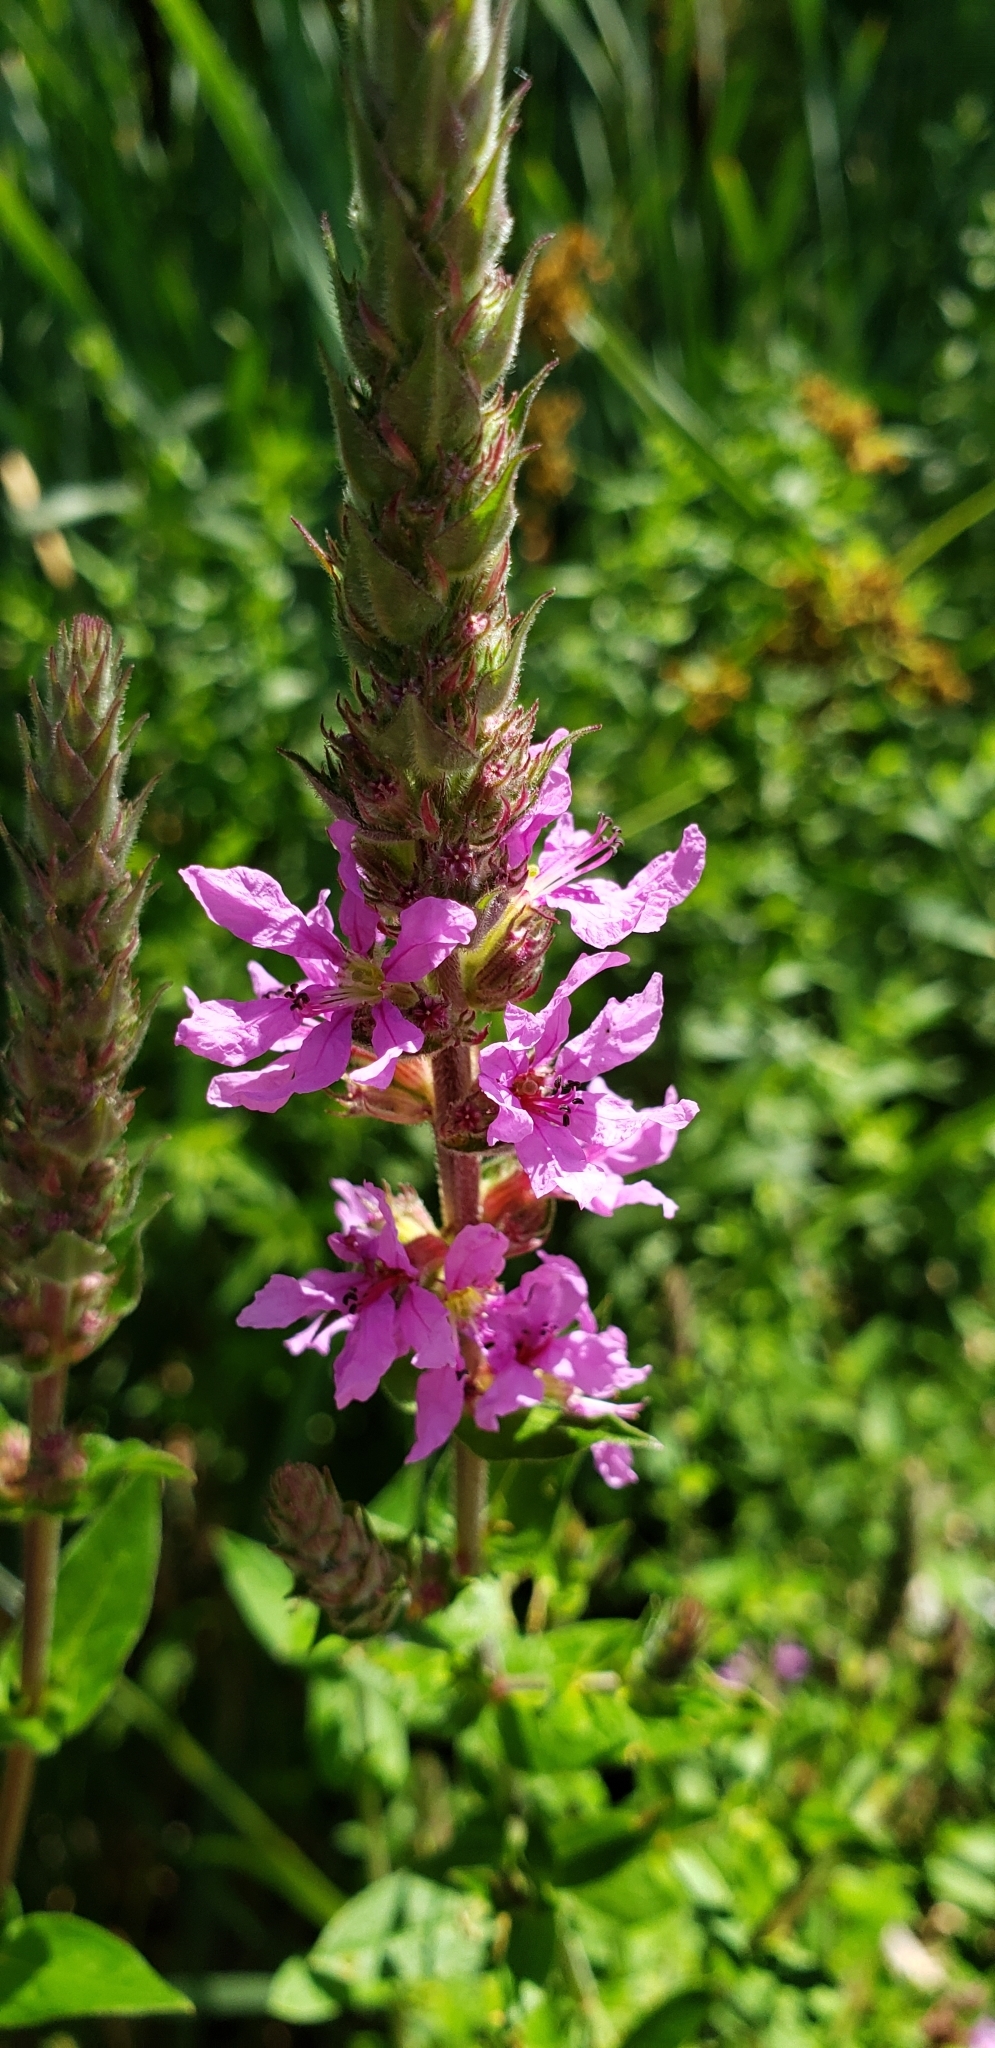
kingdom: Plantae
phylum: Tracheophyta
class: Magnoliopsida
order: Myrtales
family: Lythraceae
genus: Lythrum
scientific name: Lythrum salicaria
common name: Purple loosestrife
